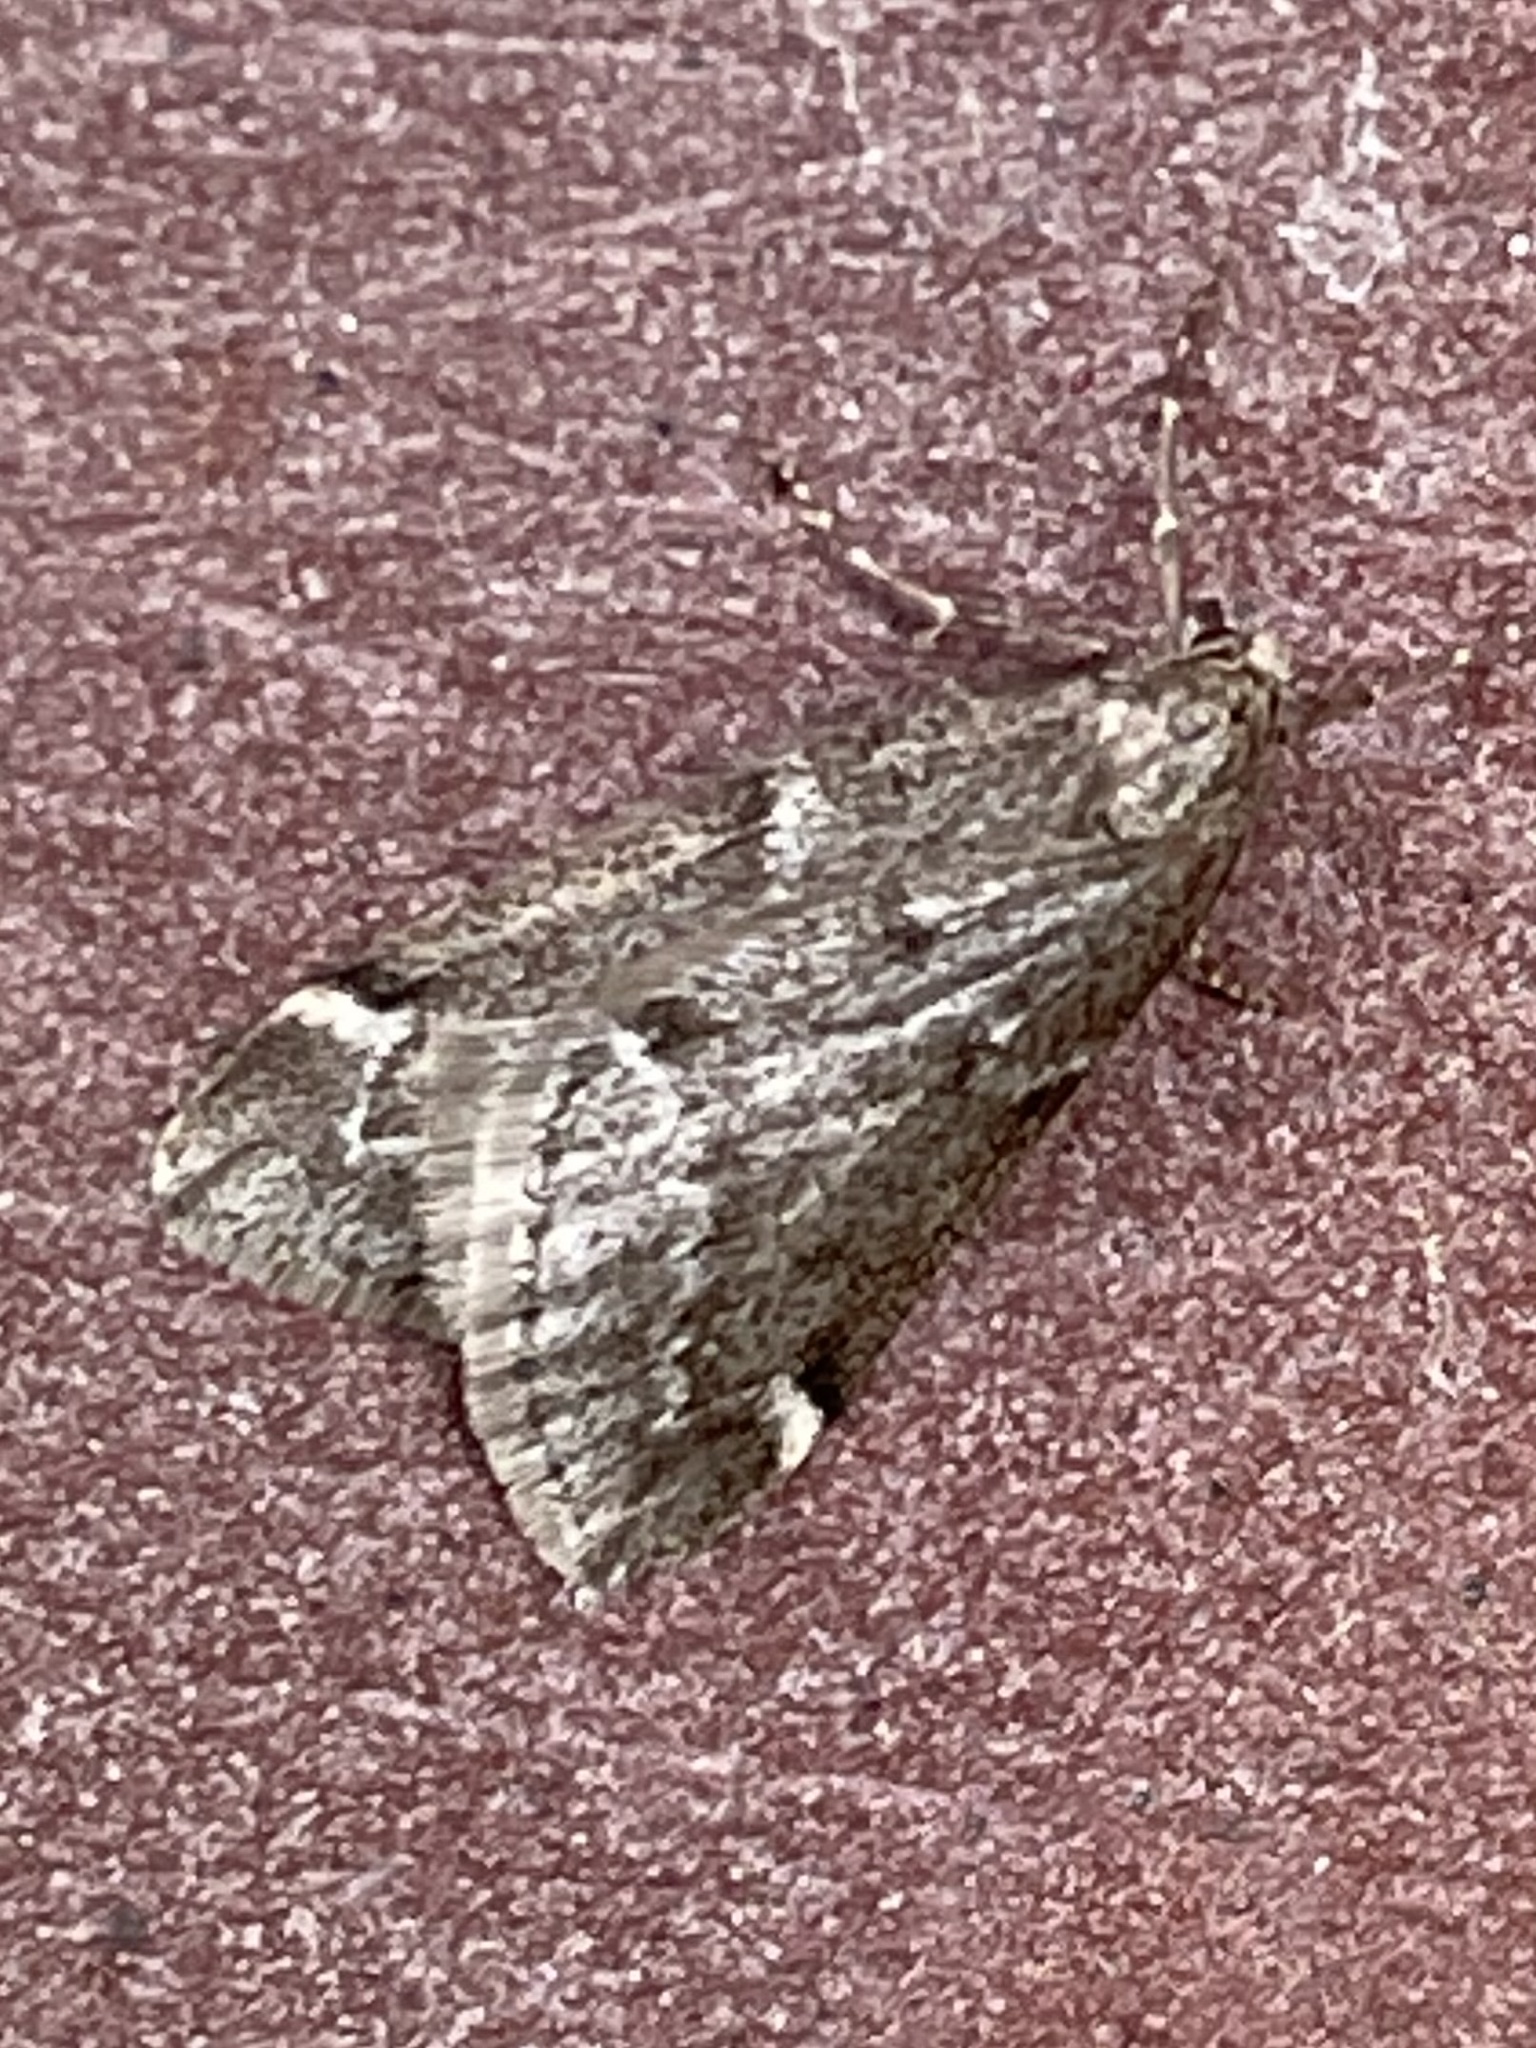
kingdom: Animalia
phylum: Arthropoda
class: Insecta
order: Lepidoptera
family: Geometridae
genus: Alsophila
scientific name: Alsophila pometaria
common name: Fall cankerworm
